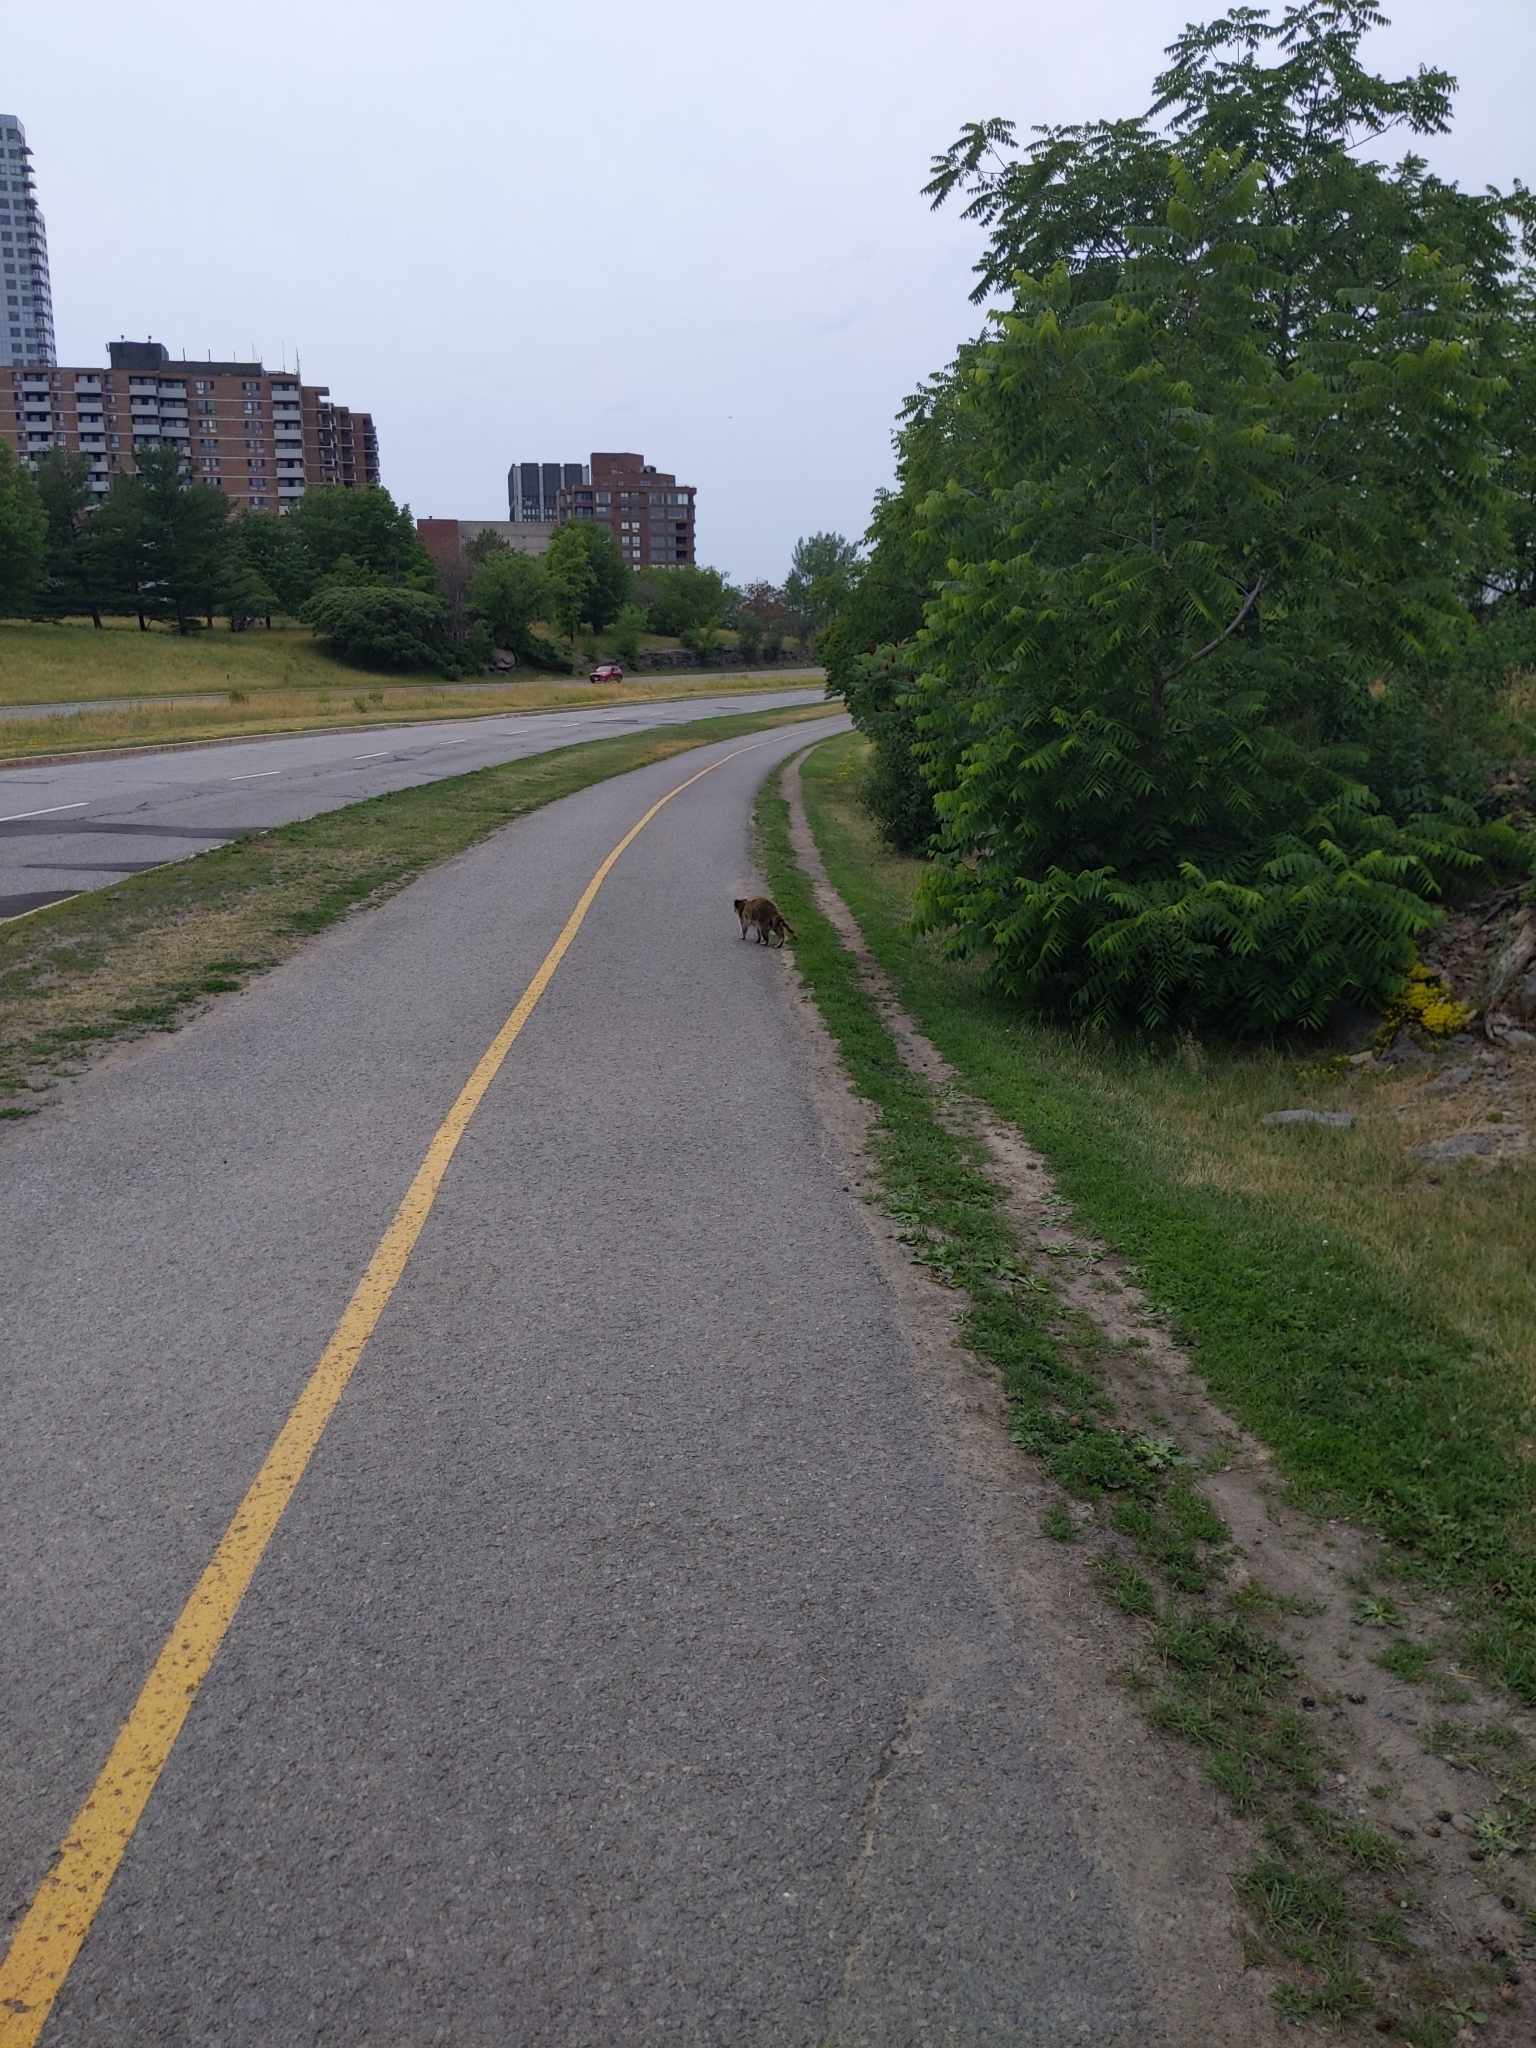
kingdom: Animalia
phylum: Chordata
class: Mammalia
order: Carnivora
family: Procyonidae
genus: Procyon
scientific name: Procyon lotor
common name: Raccoon
